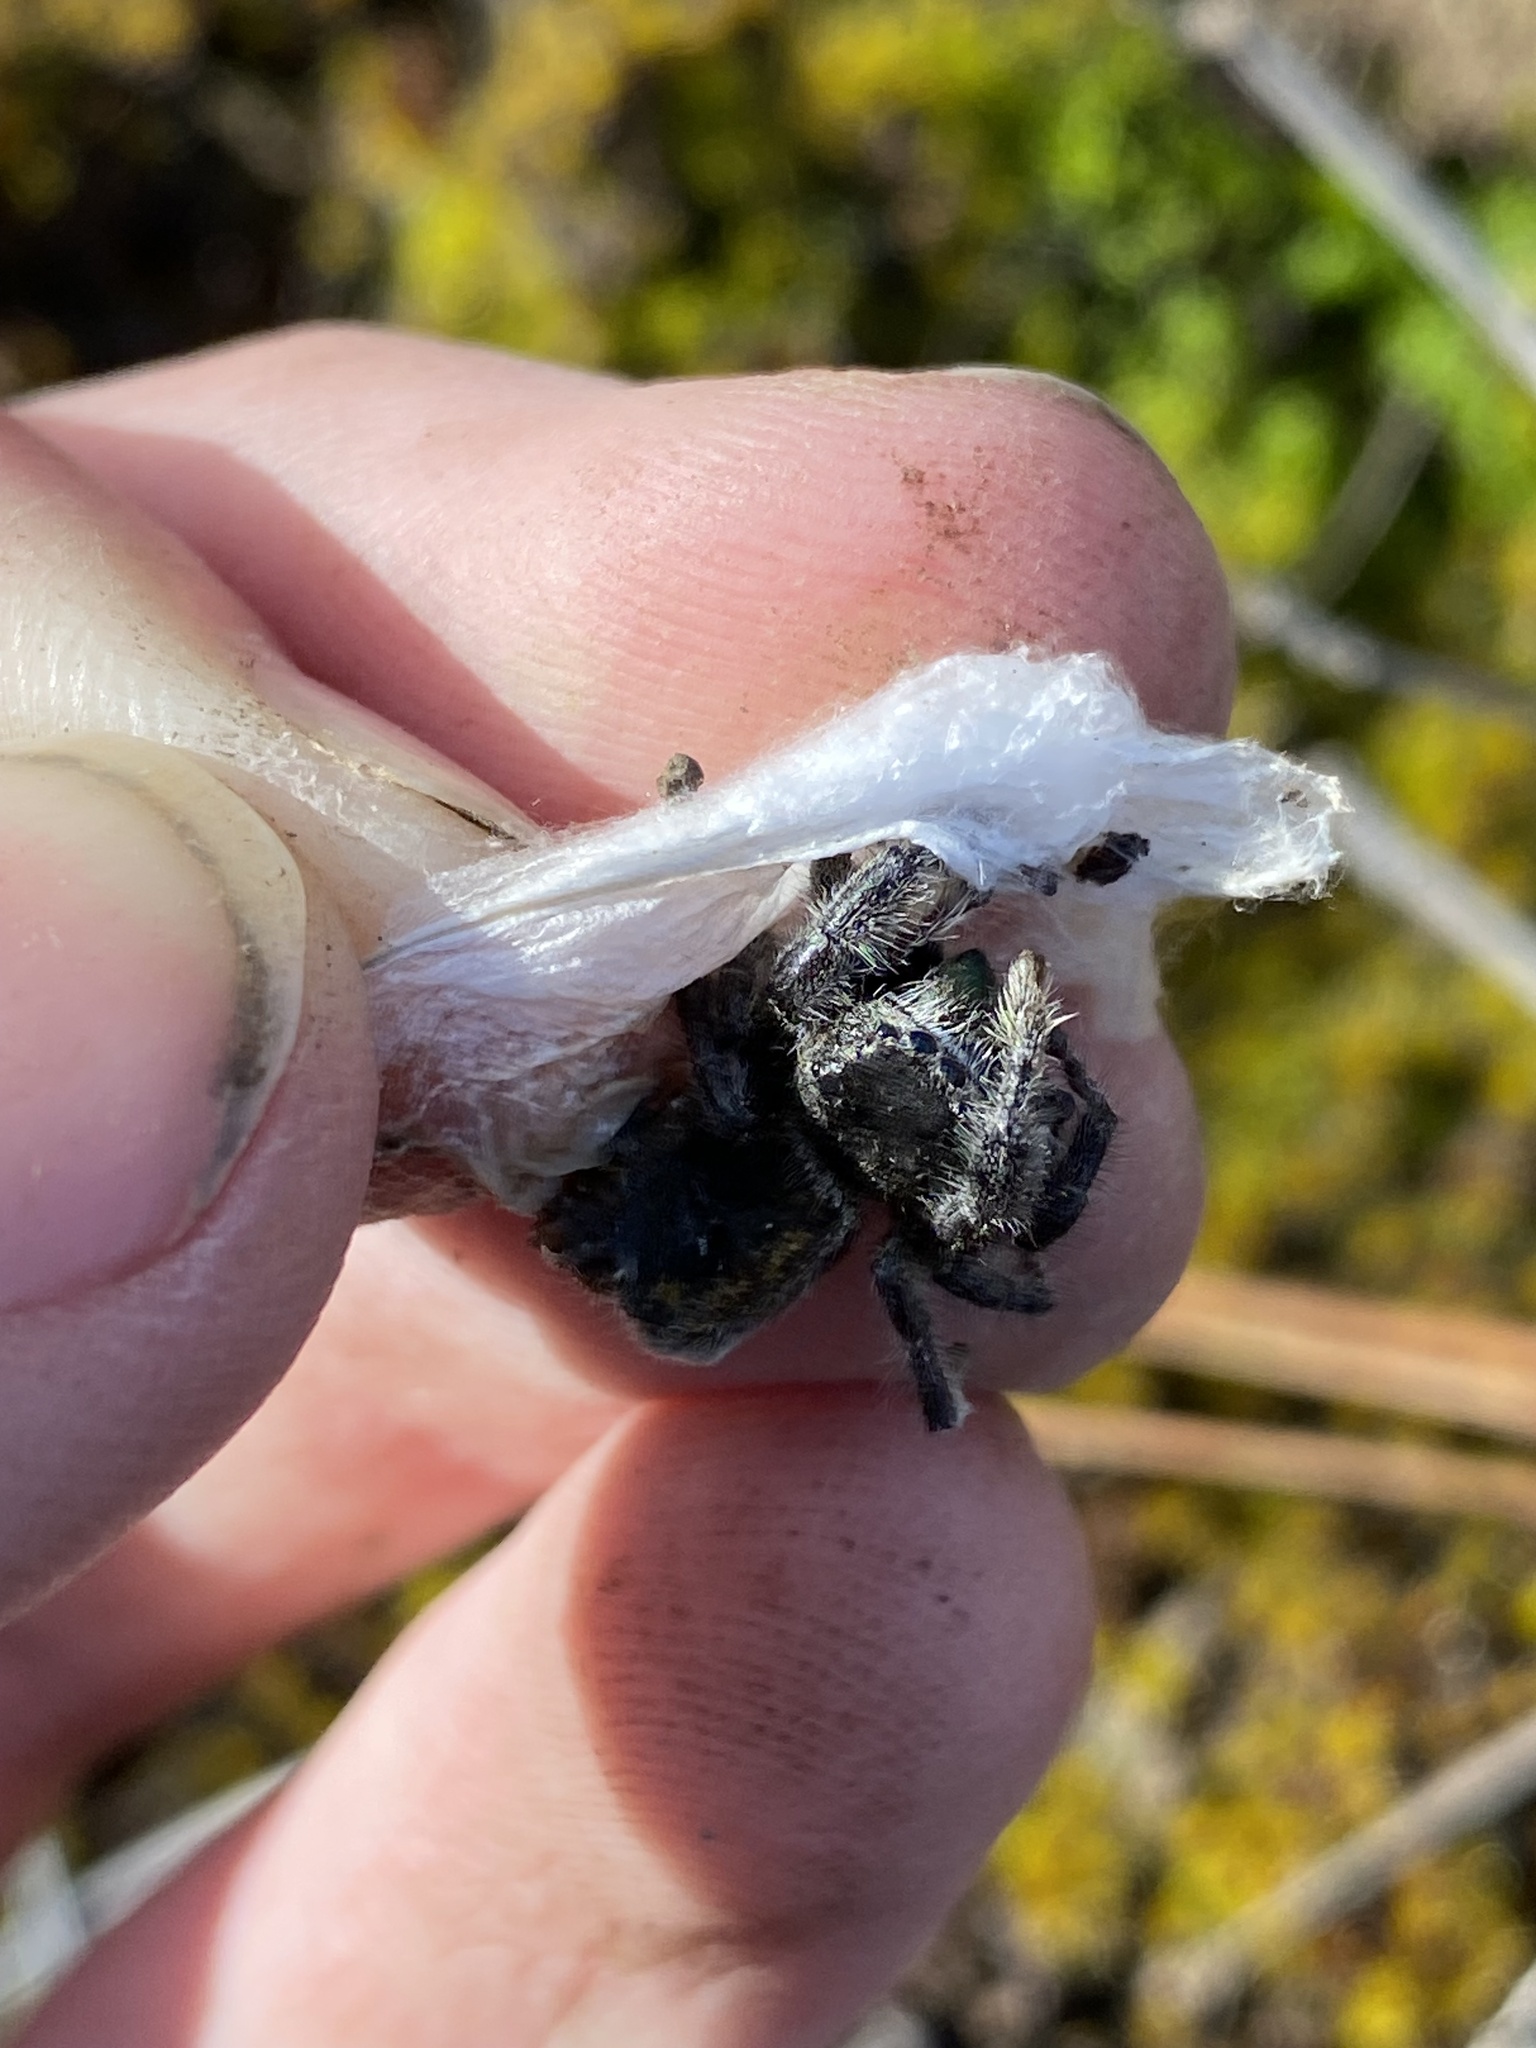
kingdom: Animalia
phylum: Arthropoda
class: Arachnida
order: Araneae
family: Salticidae
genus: Phidippus
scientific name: Phidippus johnsoni
